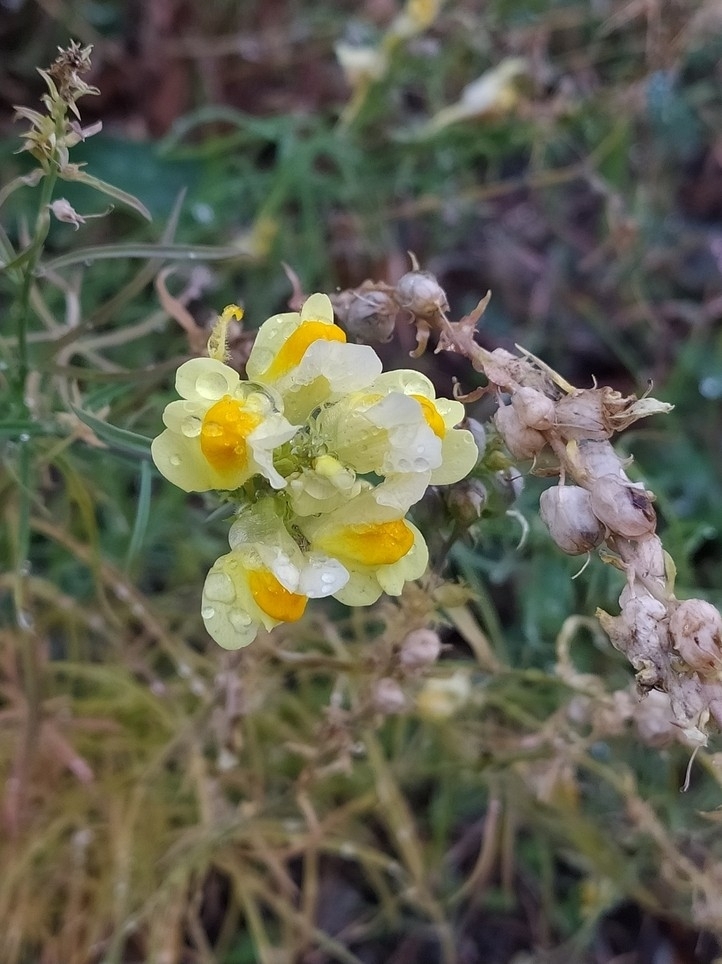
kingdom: Plantae
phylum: Tracheophyta
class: Magnoliopsida
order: Lamiales
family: Plantaginaceae
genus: Linaria
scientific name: Linaria vulgaris
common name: Butter and eggs
